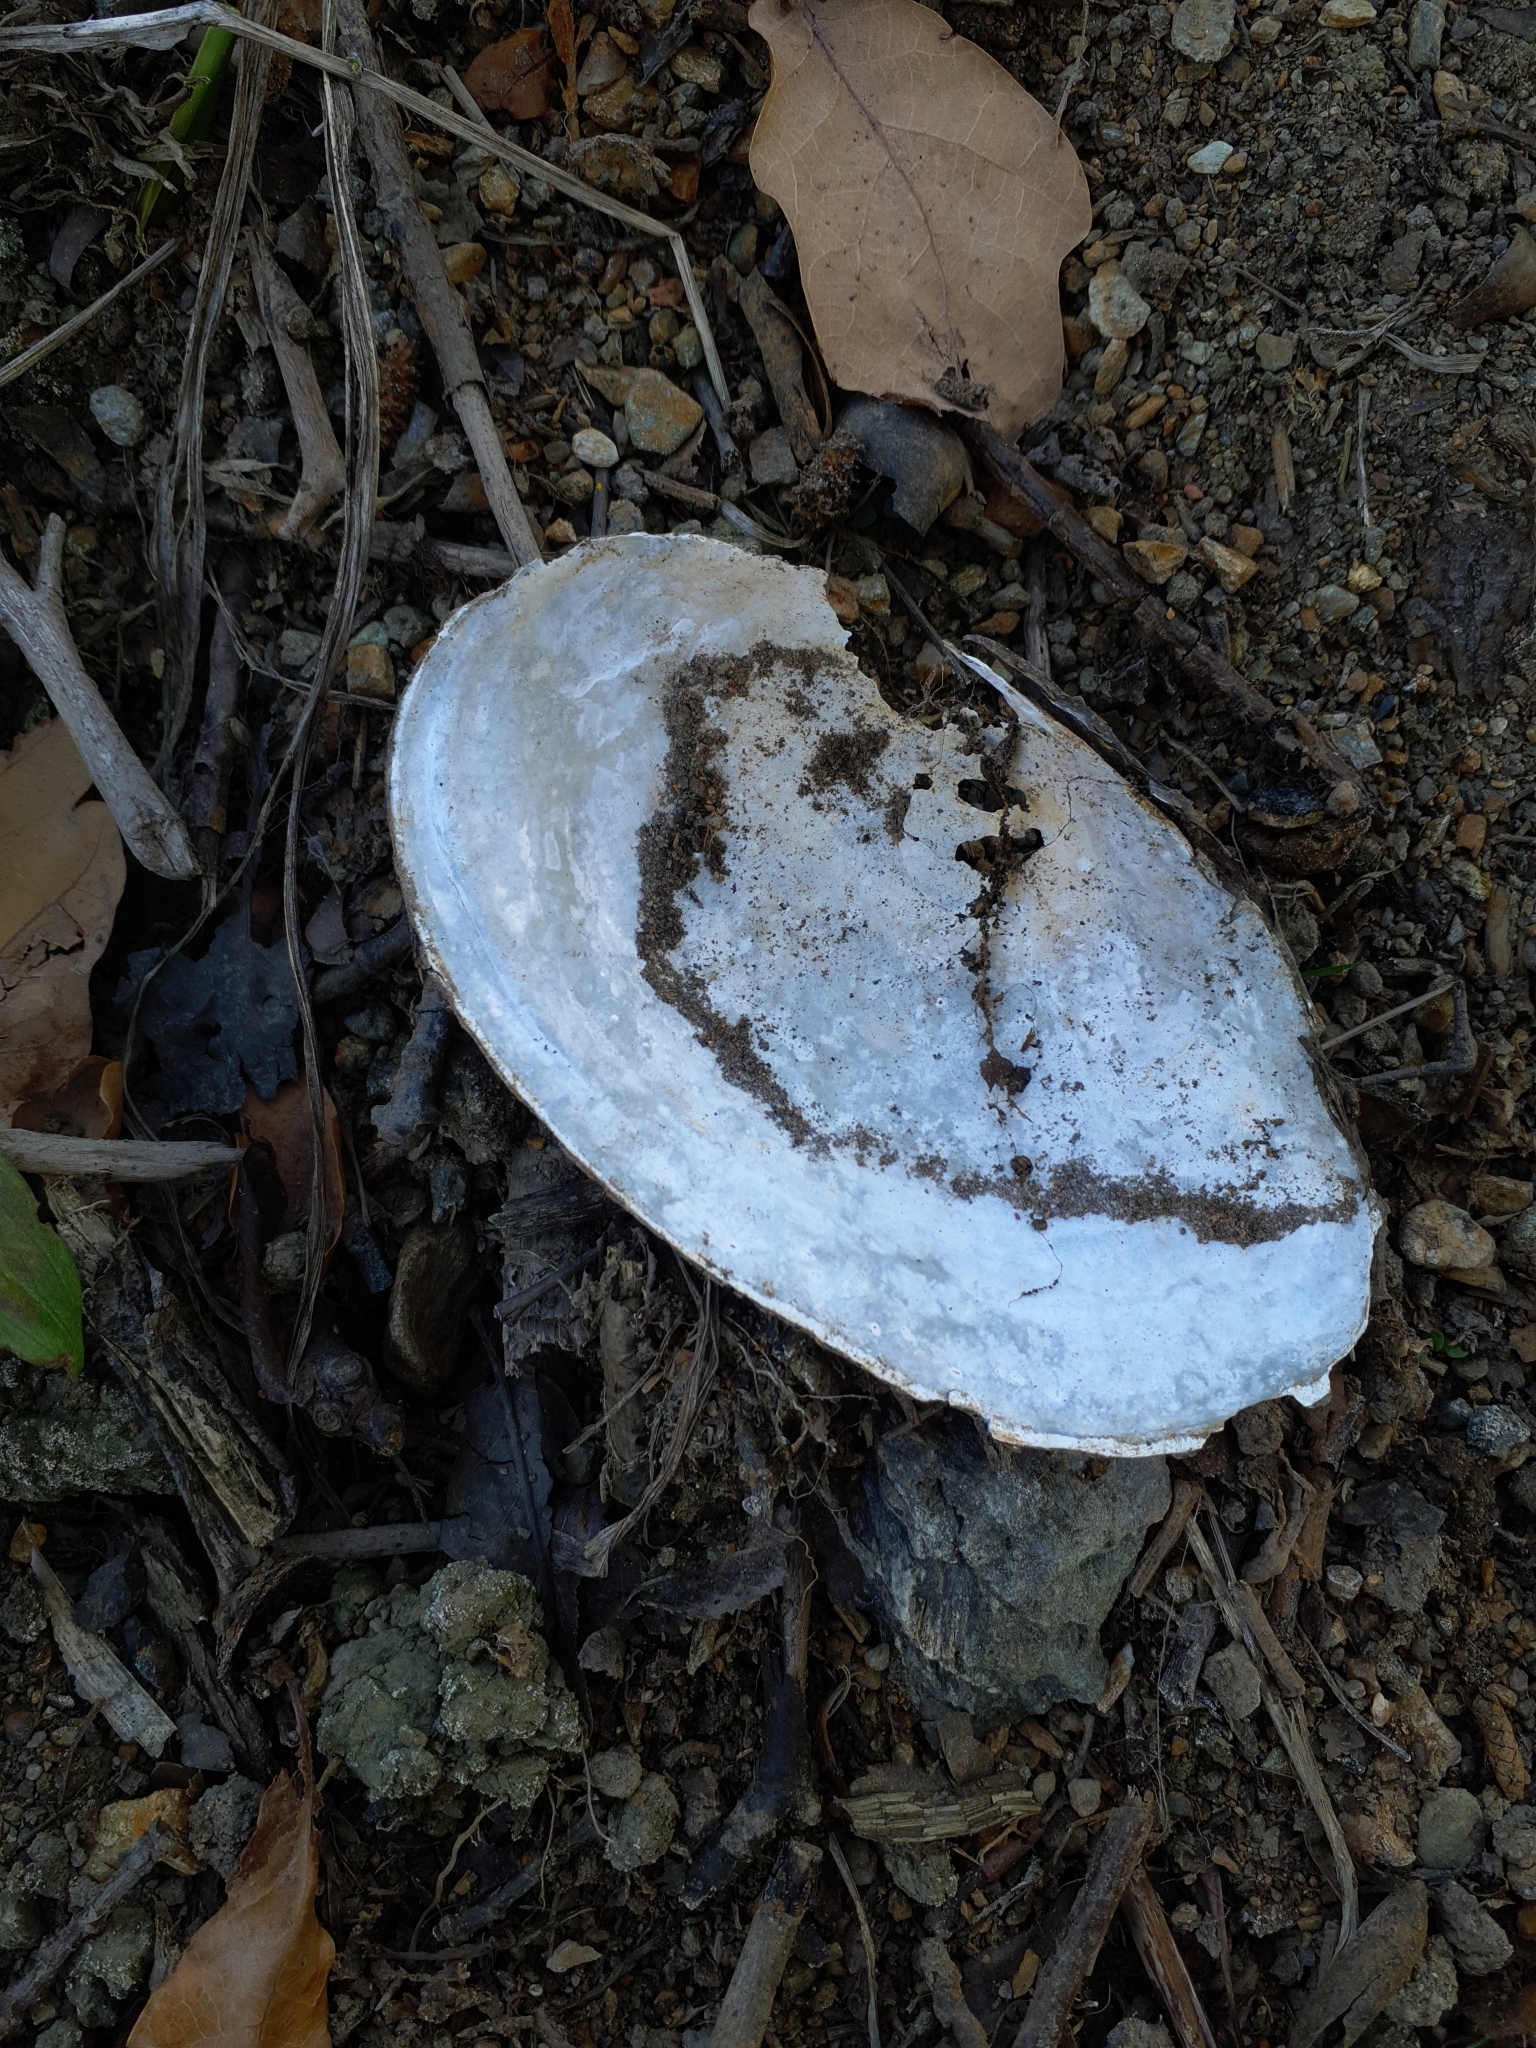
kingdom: Animalia
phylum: Mollusca
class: Bivalvia
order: Unionida
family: Unionidae
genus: Anodonta
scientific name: Anodonta anatina
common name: Duck mussel
